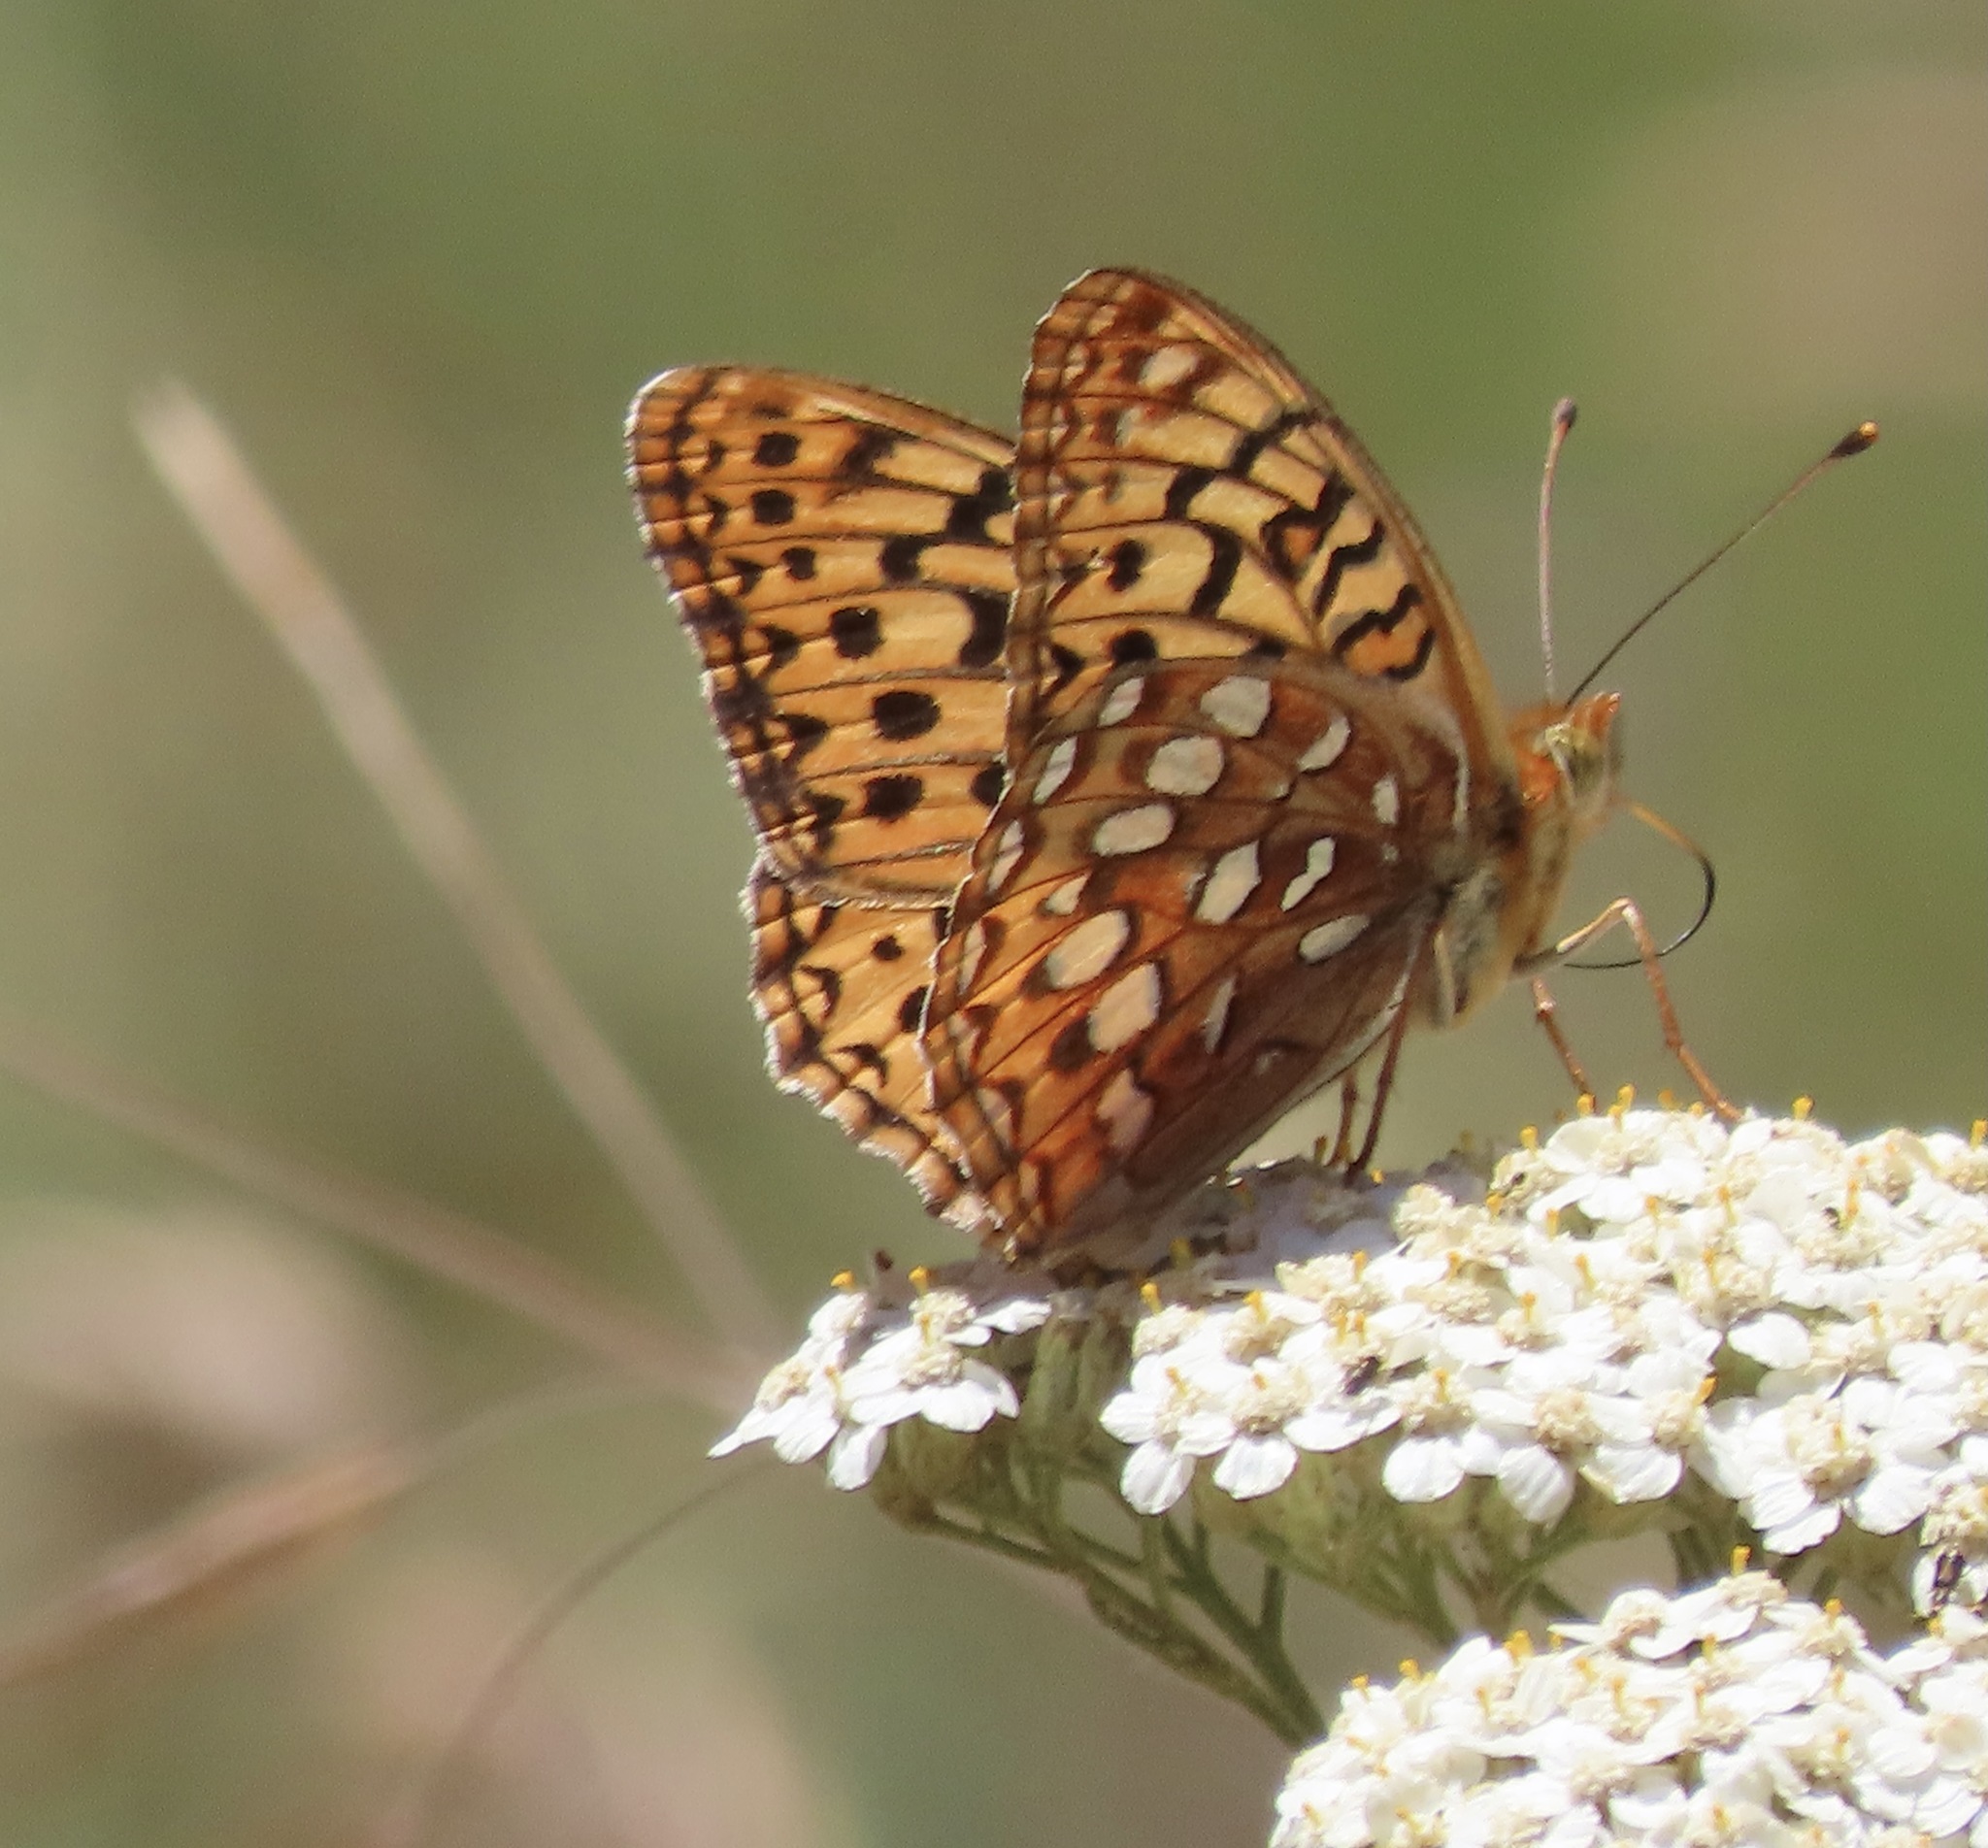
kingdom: Animalia
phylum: Arthropoda
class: Insecta
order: Lepidoptera
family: Nymphalidae
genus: Argynnis
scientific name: Argynnis coronis
